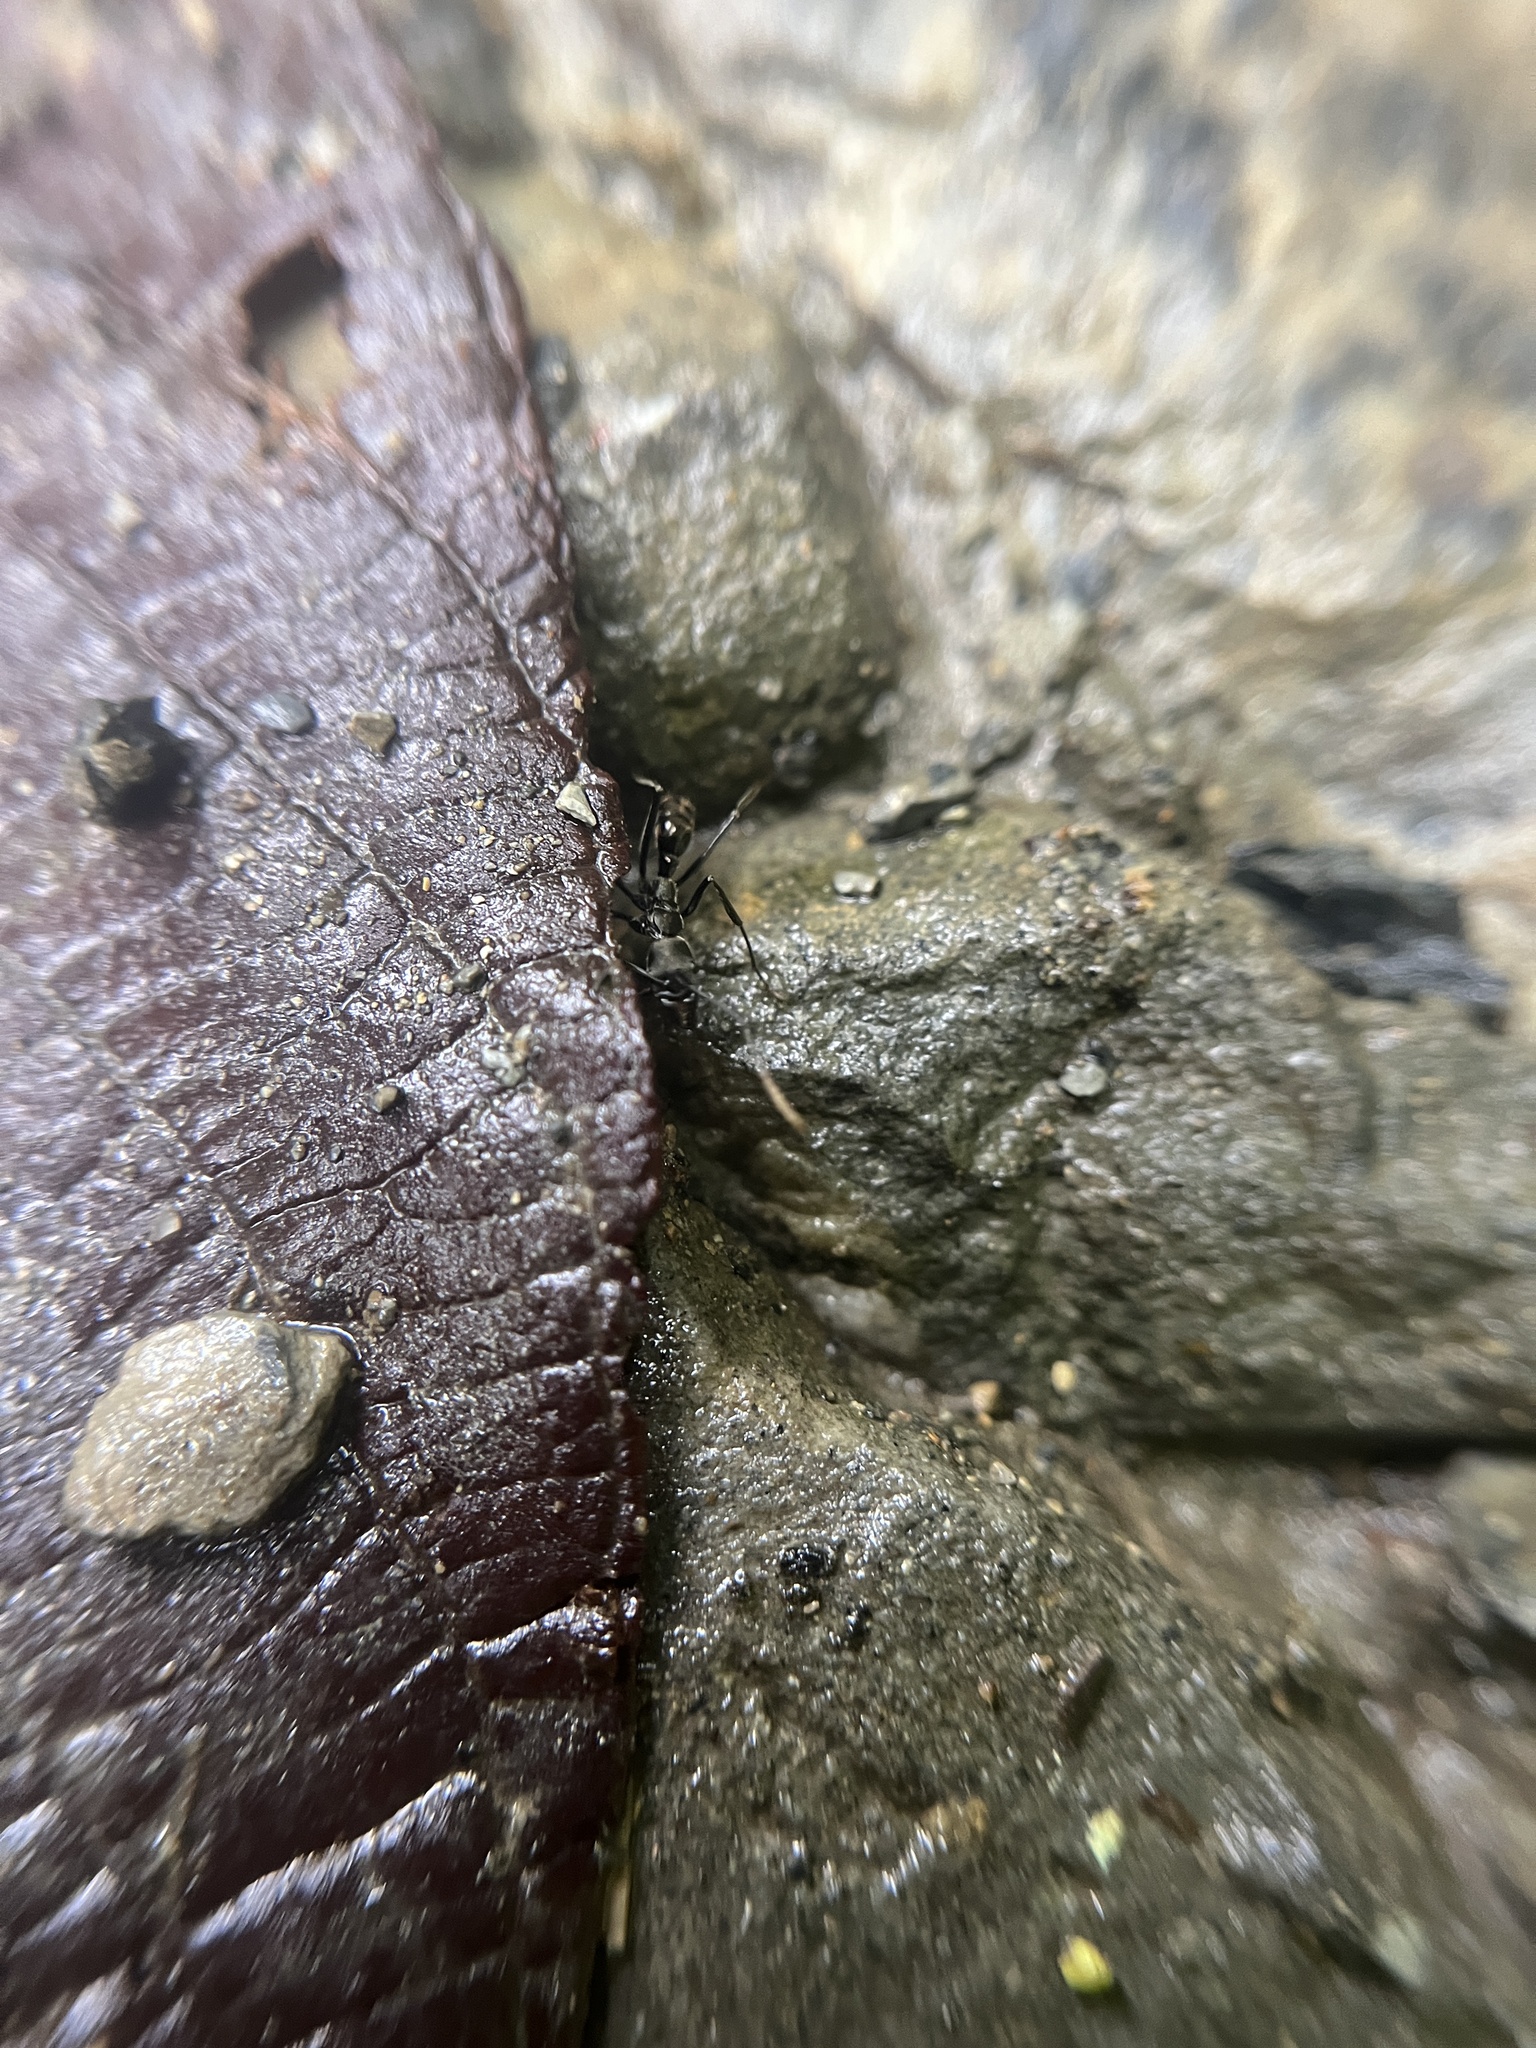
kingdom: Animalia
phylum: Arthropoda
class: Insecta
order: Hymenoptera
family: Formicidae
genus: Neoponera
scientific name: Neoponera
